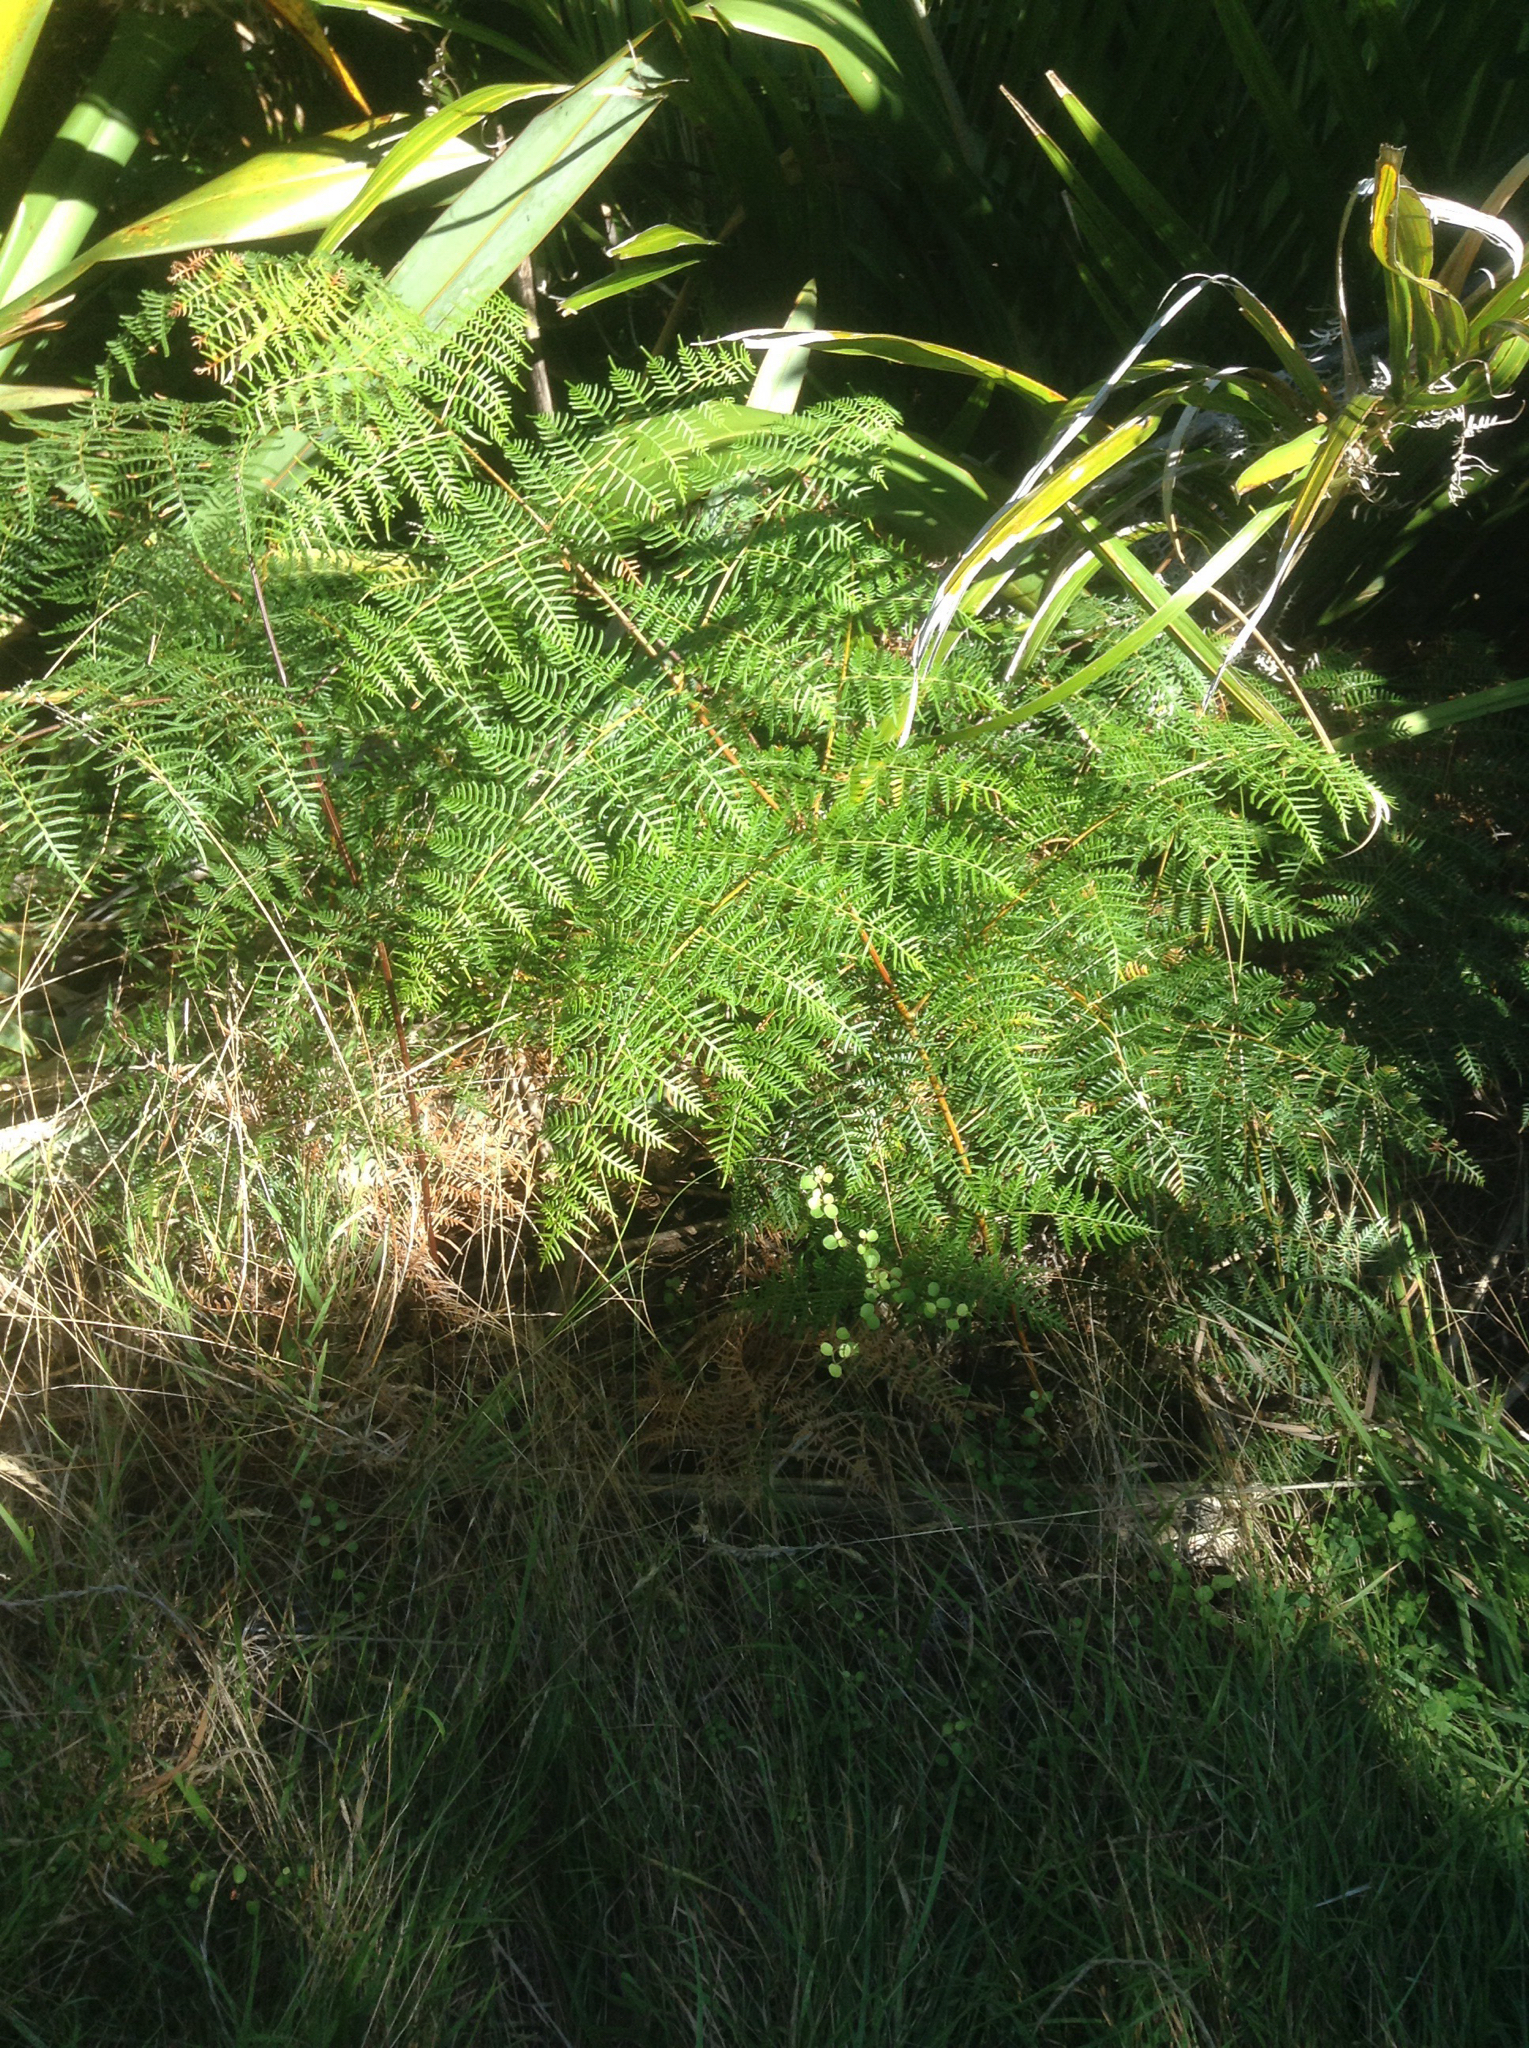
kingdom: Plantae
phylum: Tracheophyta
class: Polypodiopsida
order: Polypodiales
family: Dennstaedtiaceae
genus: Pteridium
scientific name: Pteridium esculentum
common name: Bracken fern
